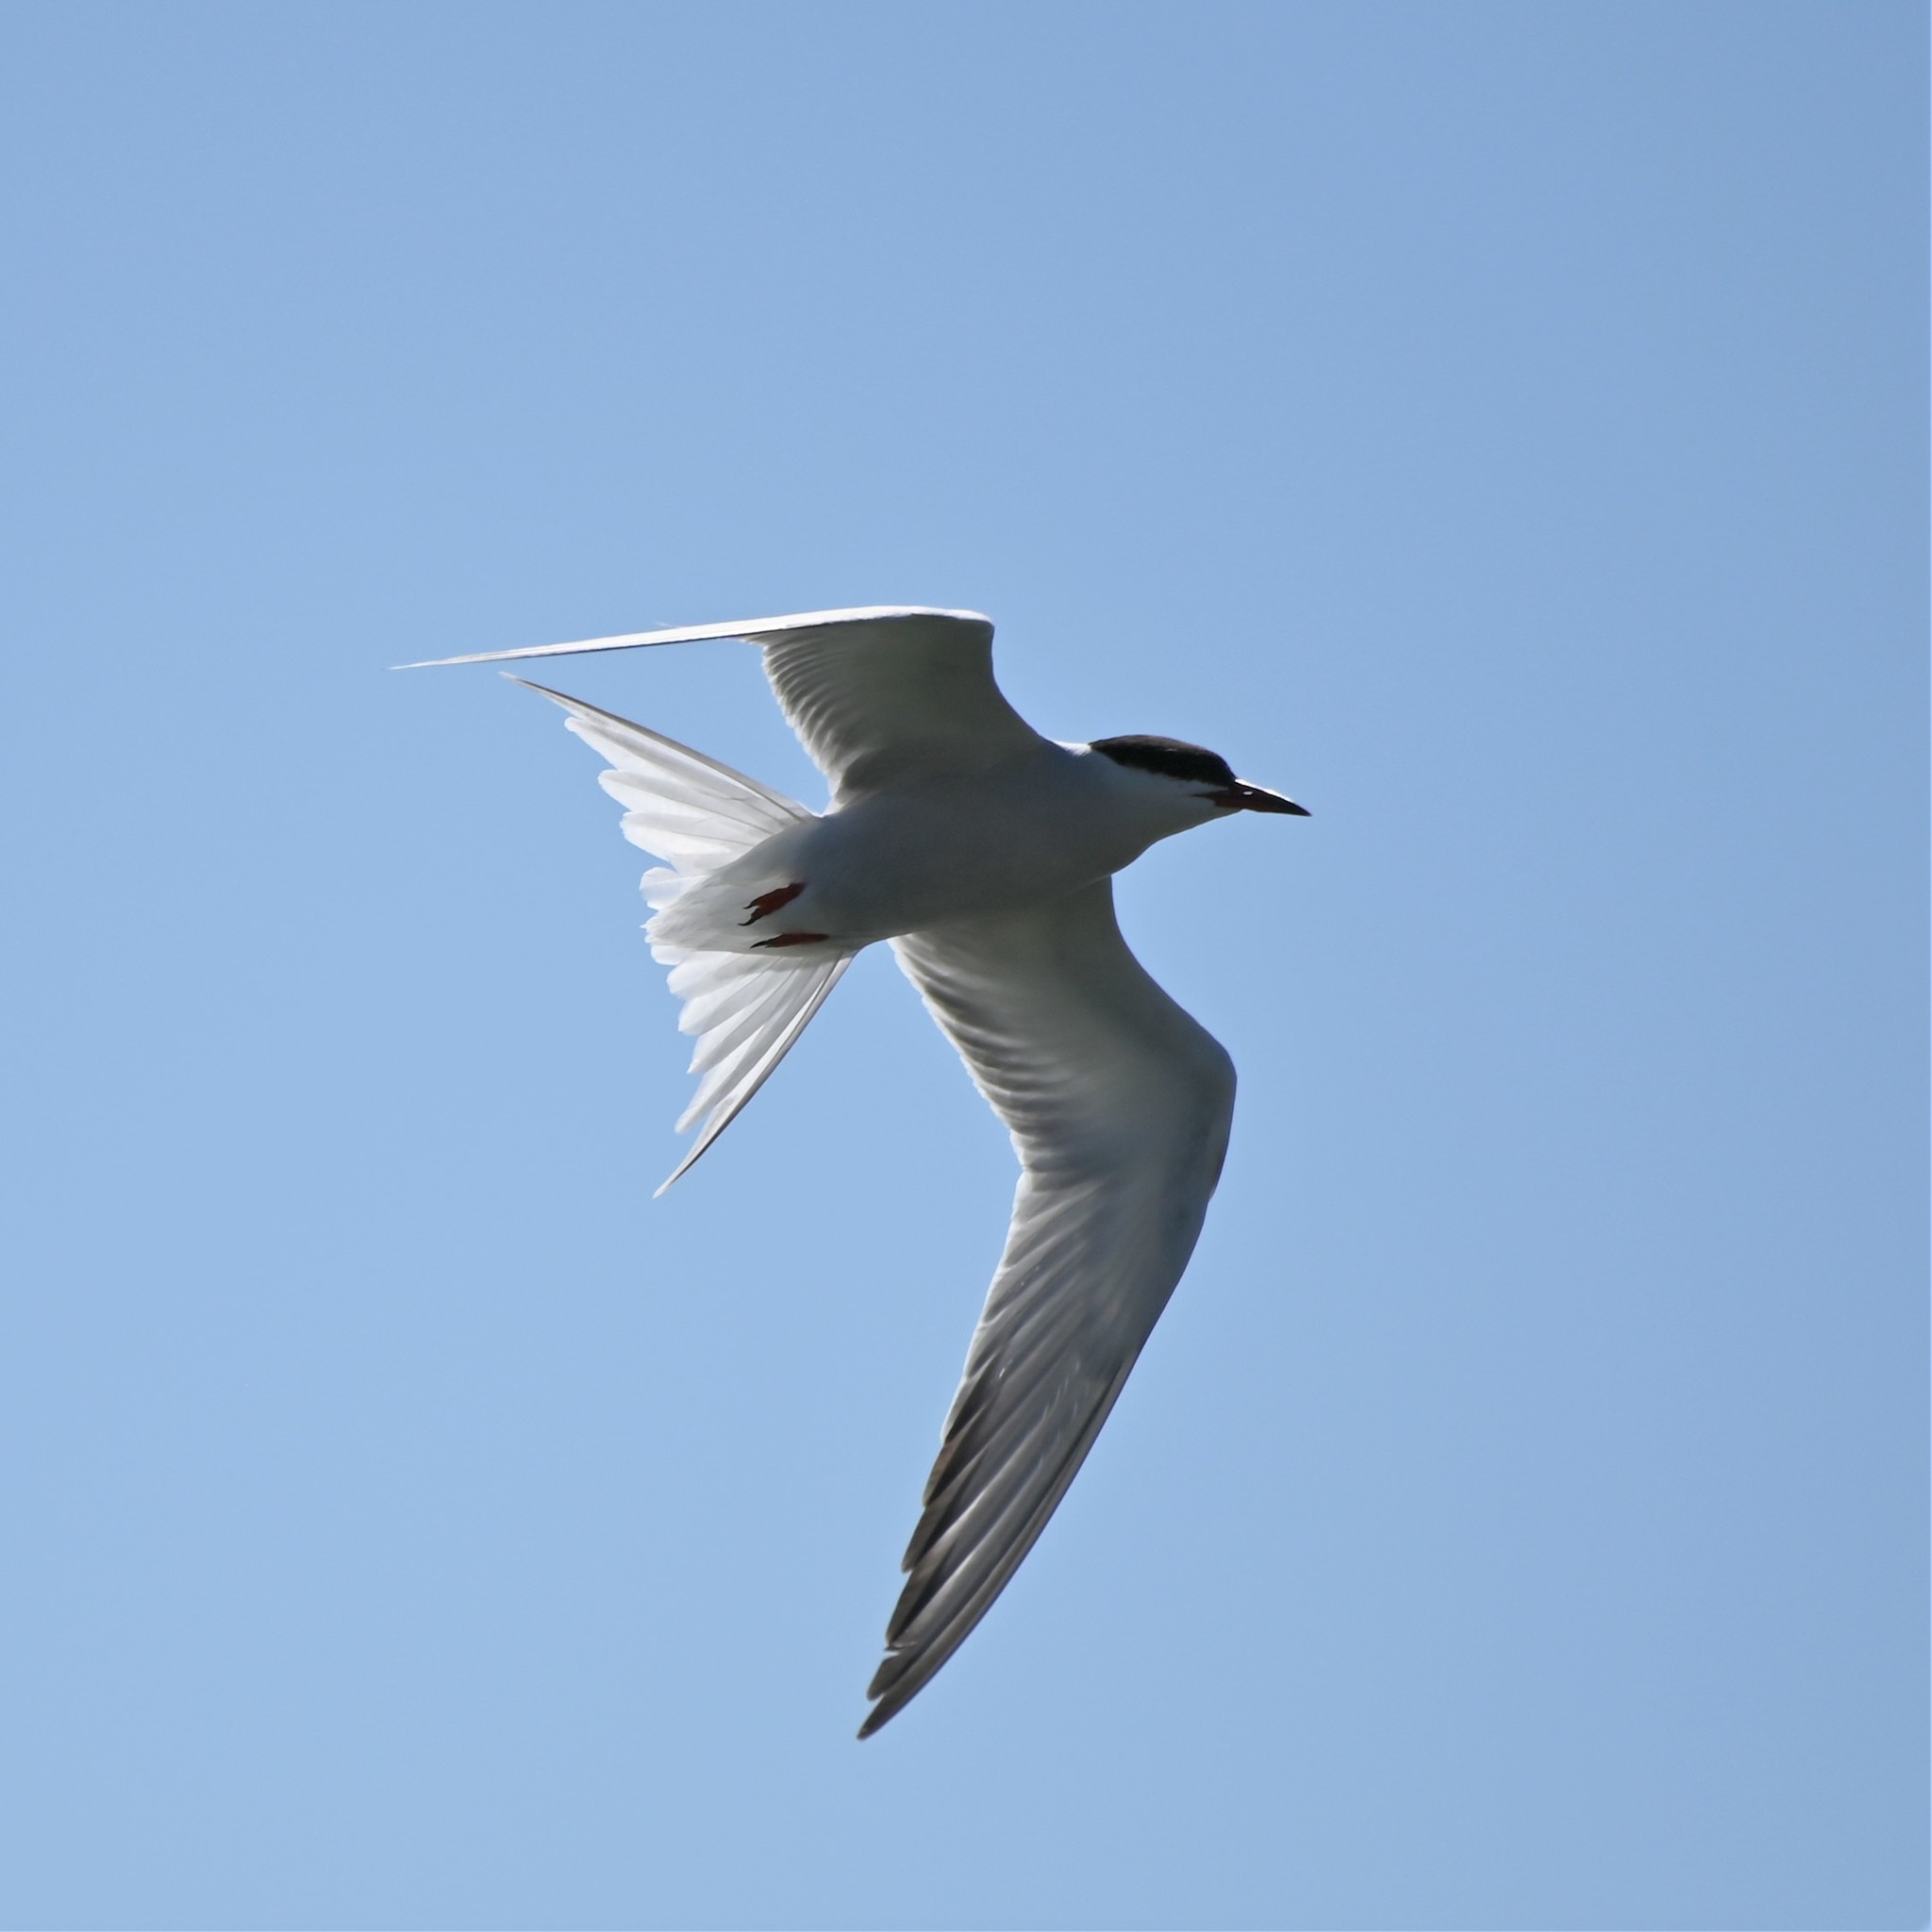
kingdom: Animalia
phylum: Chordata
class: Aves
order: Charadriiformes
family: Laridae
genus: Sterna
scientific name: Sterna forsteri
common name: Forster's tern
